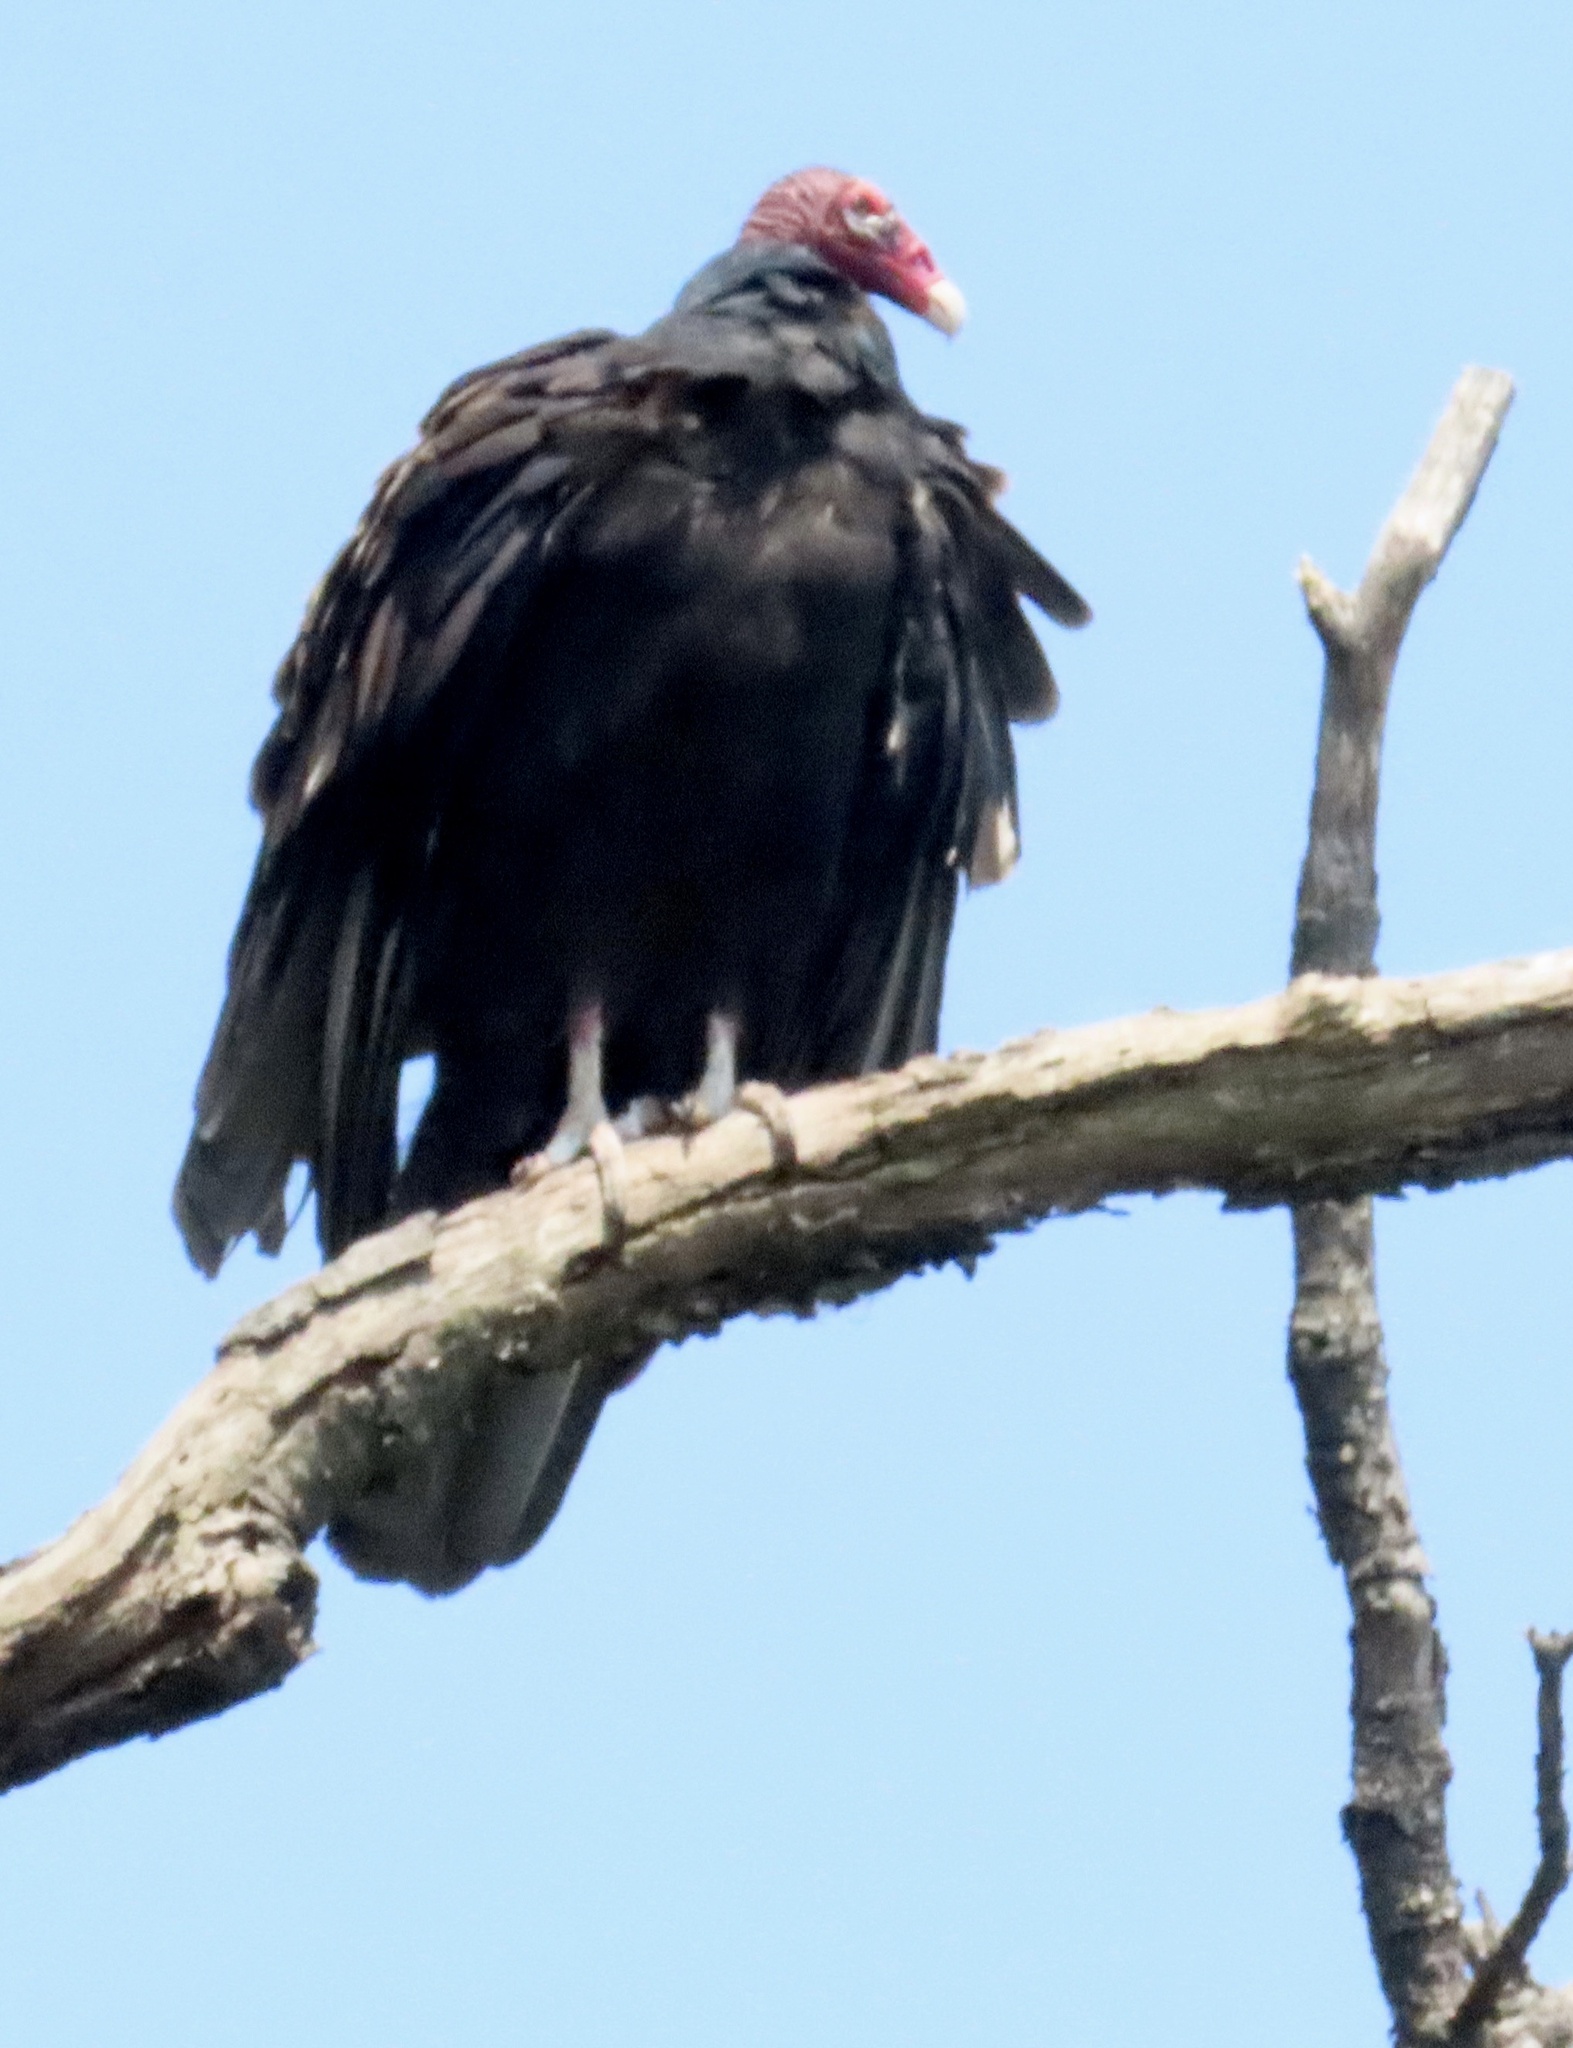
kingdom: Animalia
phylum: Chordata
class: Aves
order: Accipitriformes
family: Cathartidae
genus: Cathartes
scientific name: Cathartes aura
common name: Turkey vulture
